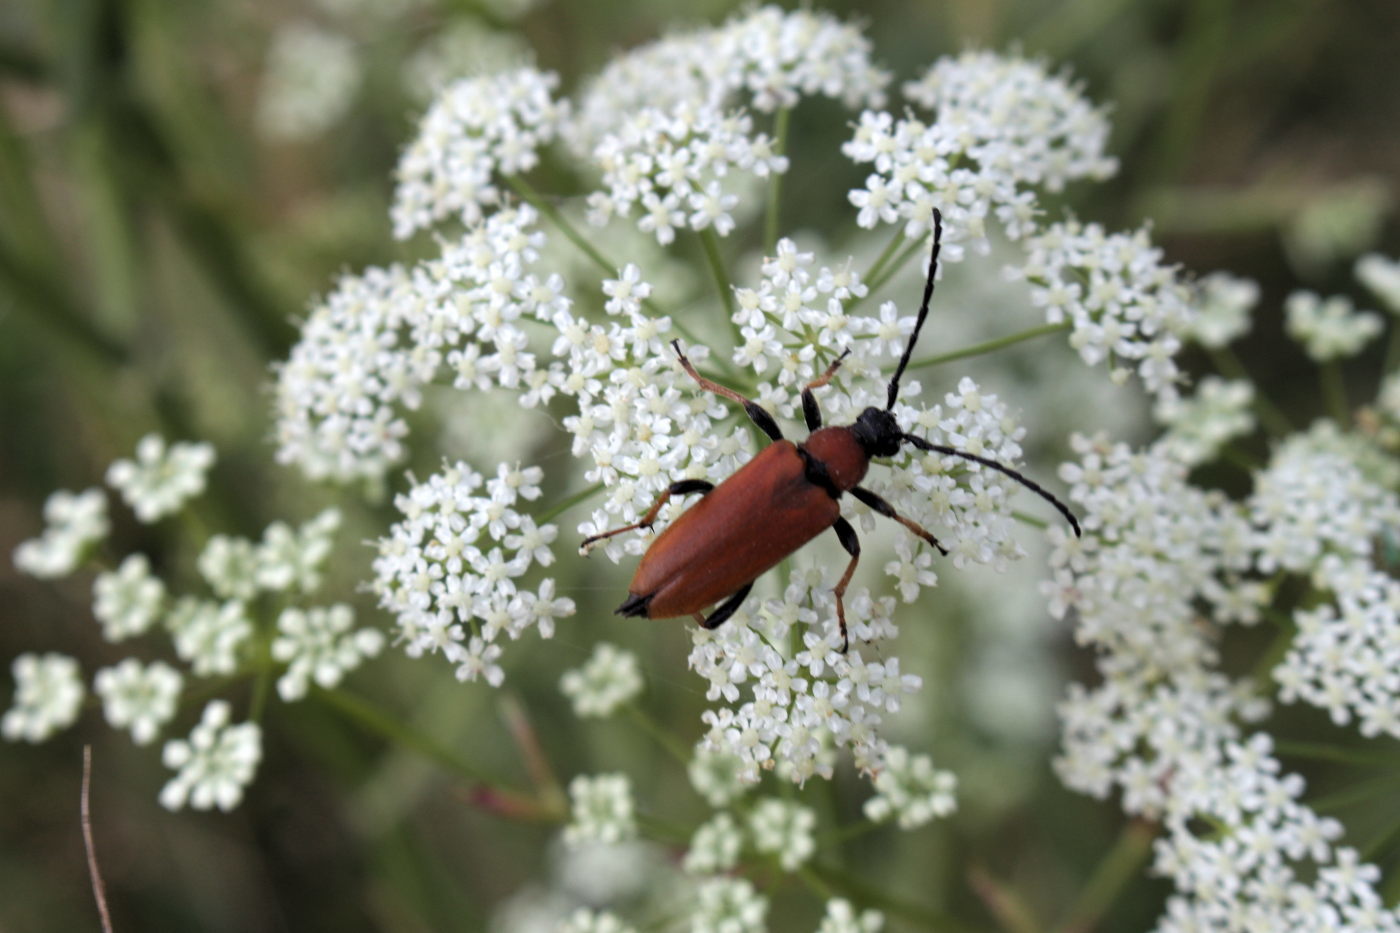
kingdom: Animalia
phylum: Arthropoda
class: Insecta
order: Coleoptera
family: Cerambycidae
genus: Stictoleptura
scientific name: Stictoleptura rubra
